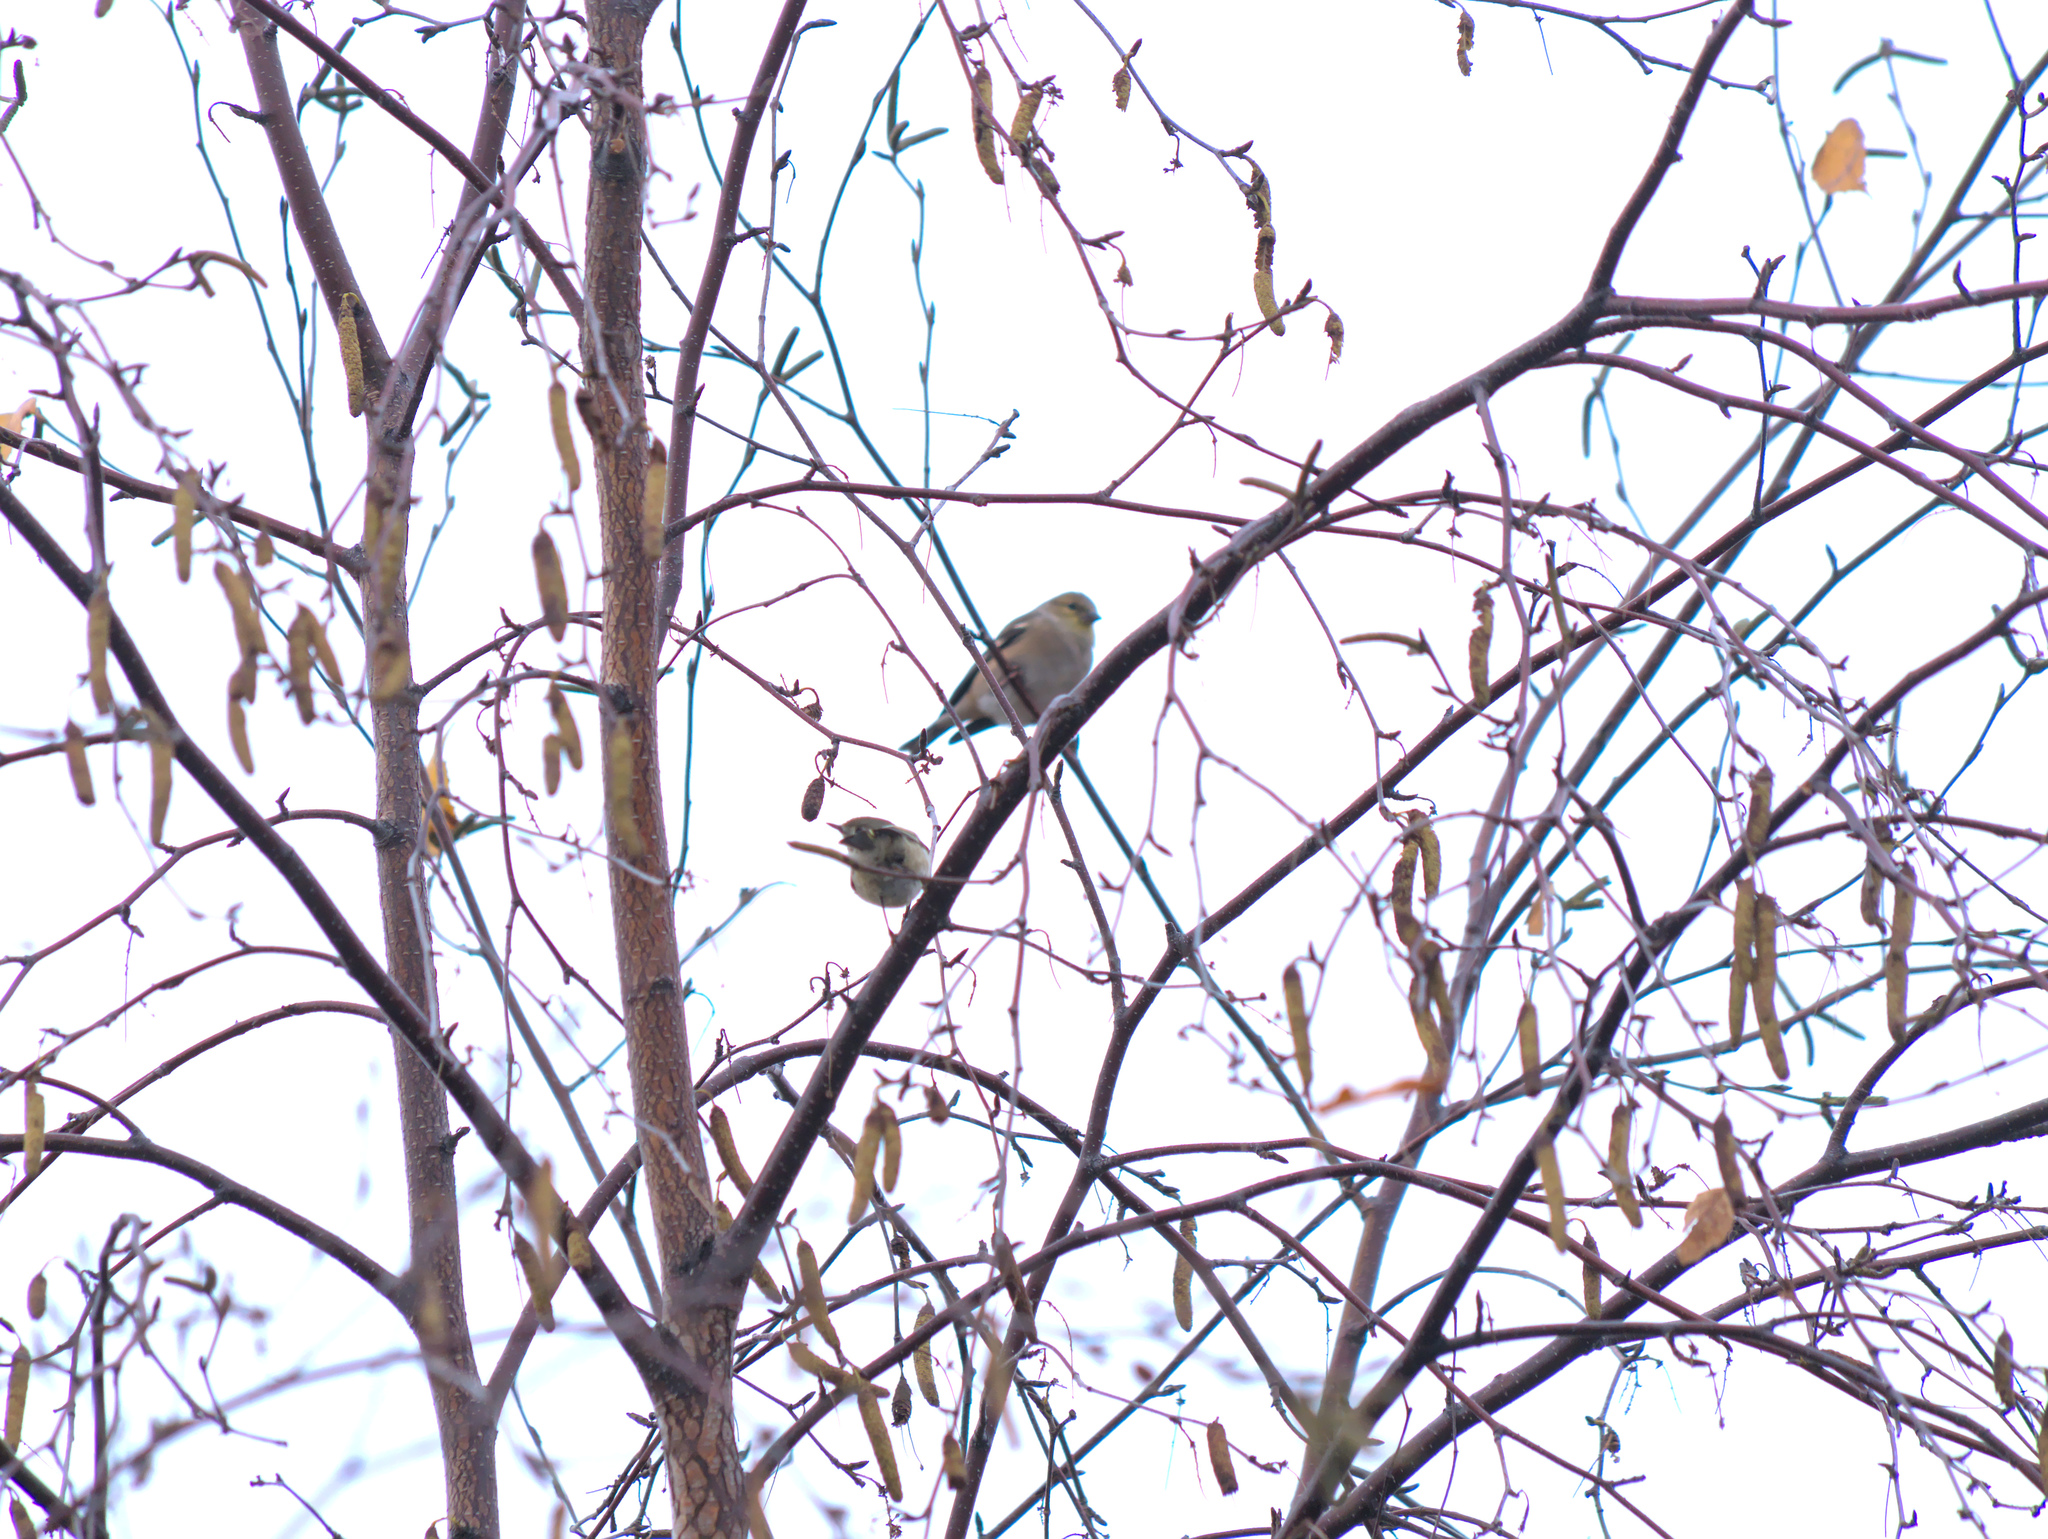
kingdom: Animalia
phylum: Chordata
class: Aves
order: Passeriformes
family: Fringillidae
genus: Spinus
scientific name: Spinus tristis
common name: American goldfinch
